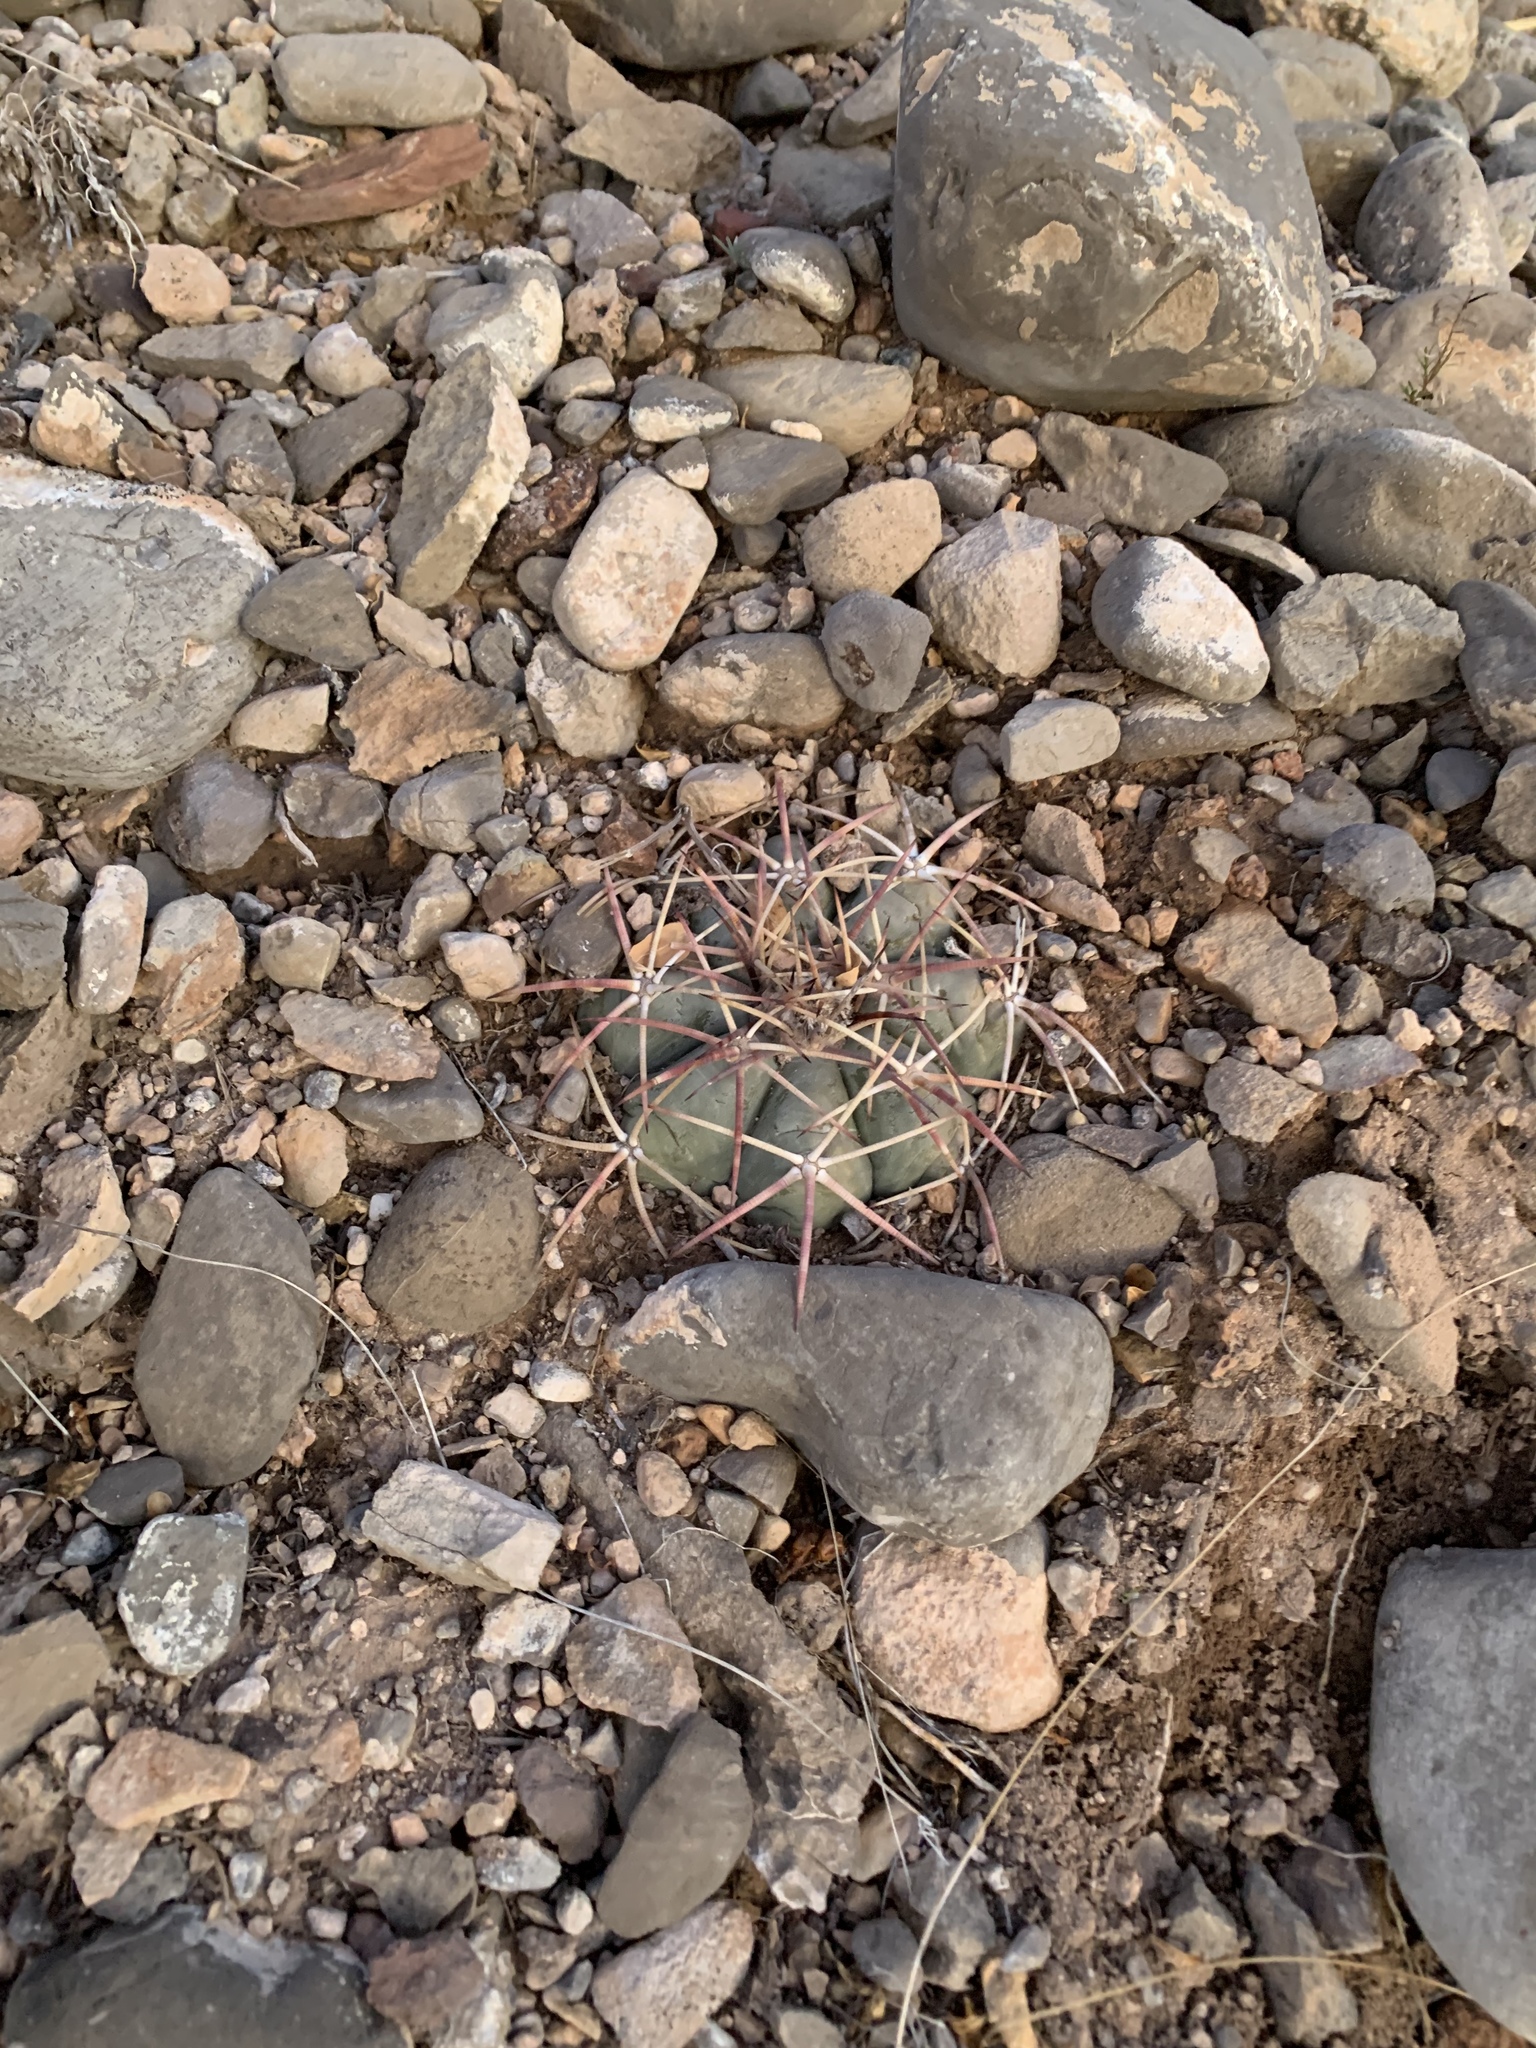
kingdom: Plantae
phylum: Tracheophyta
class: Magnoliopsida
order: Caryophyllales
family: Cactaceae
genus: Echinocactus
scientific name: Echinocactus horizonthalonius
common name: Devilshead
